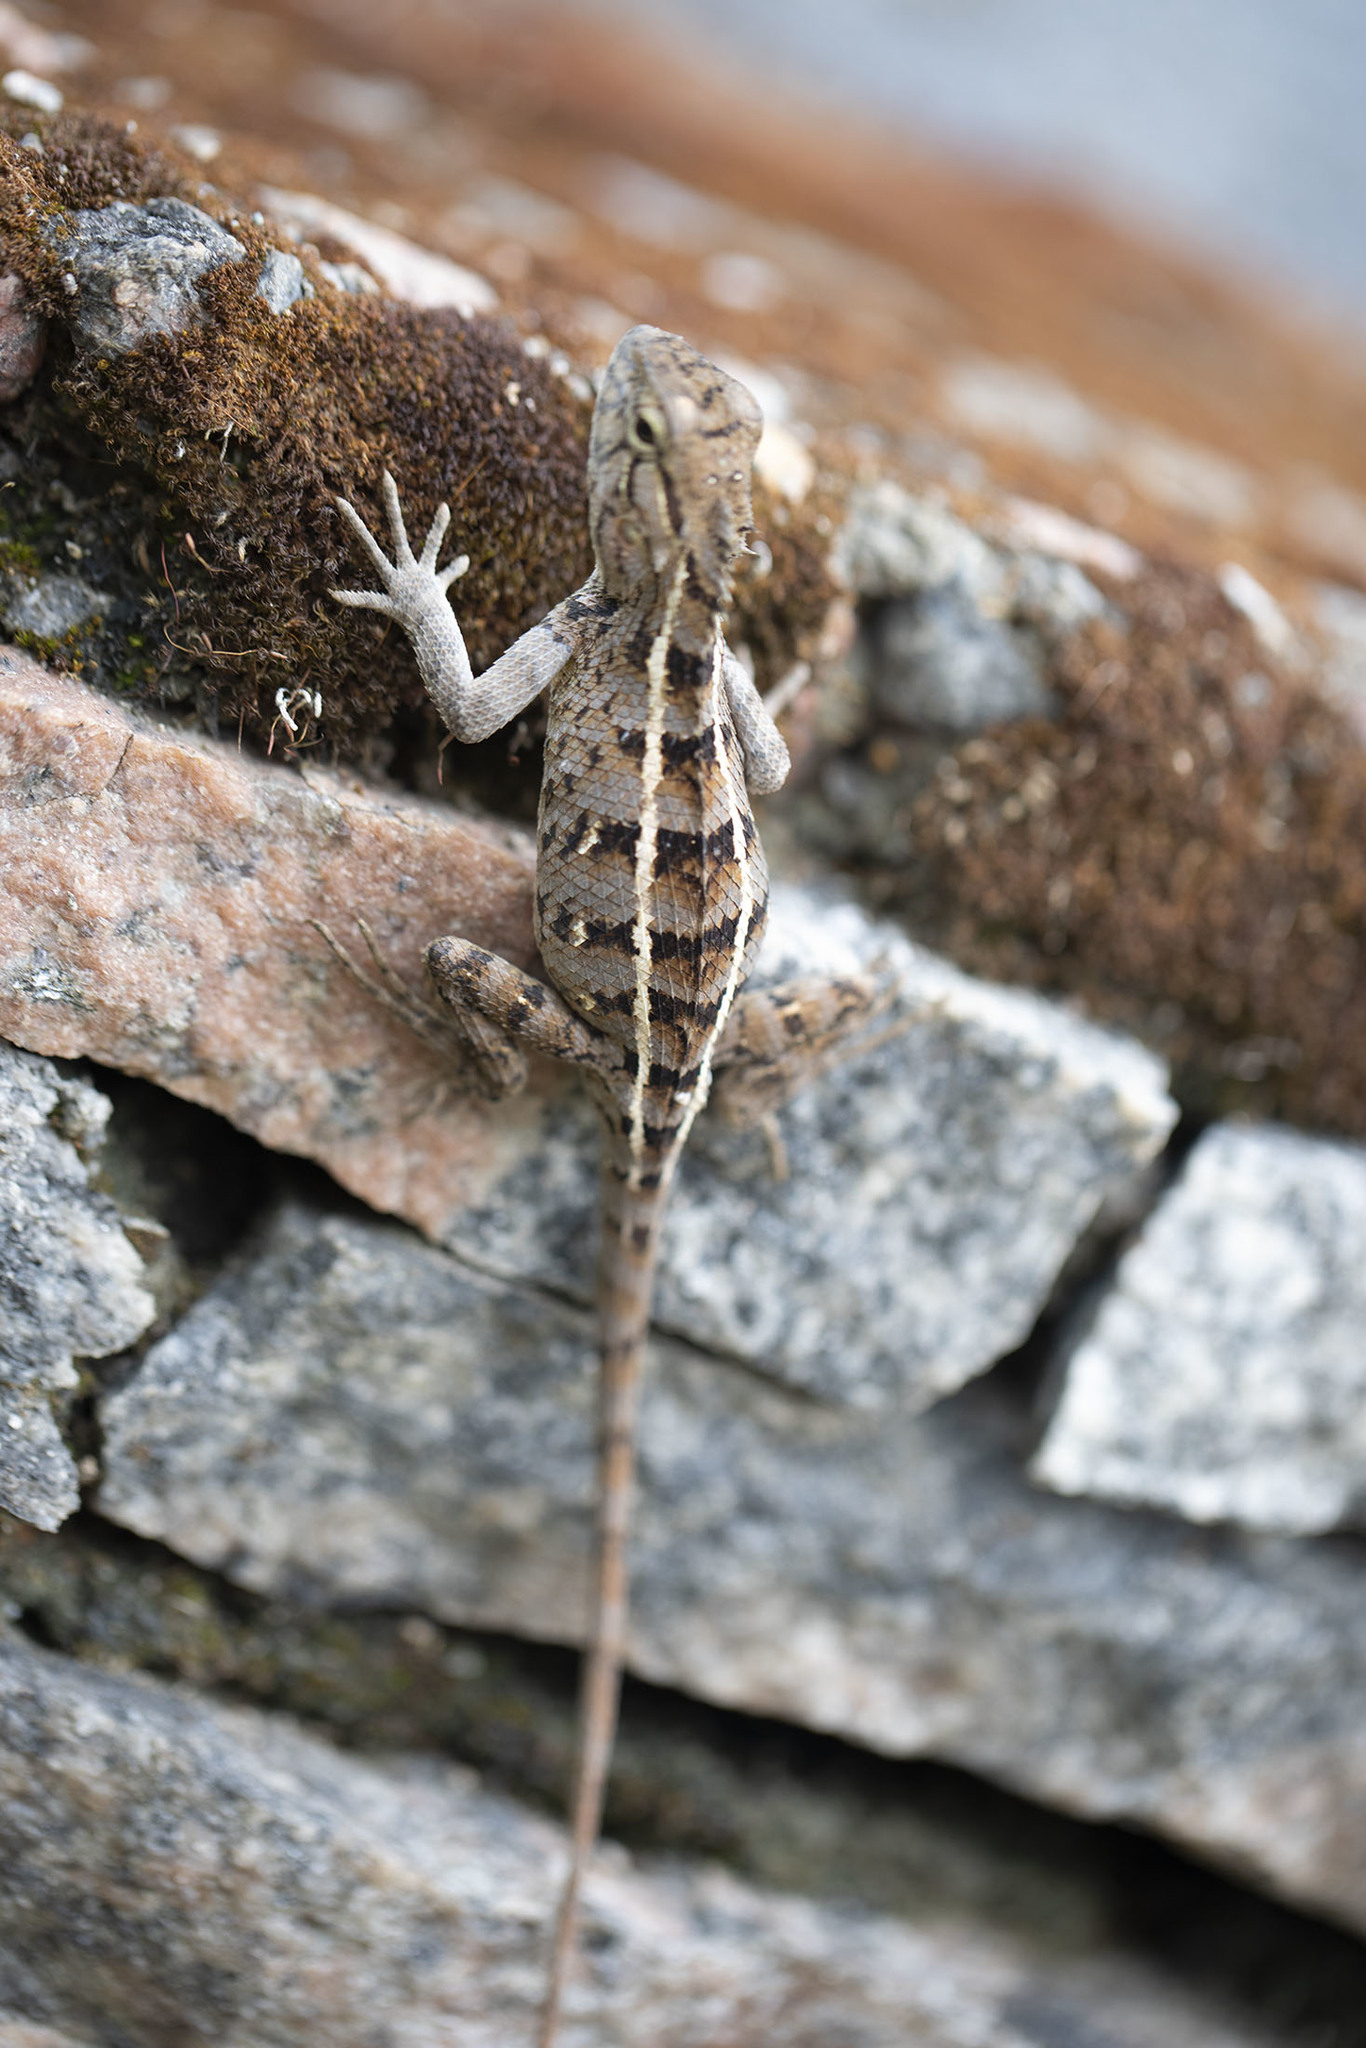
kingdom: Animalia
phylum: Chordata
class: Squamata
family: Agamidae
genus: Calotes
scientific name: Calotes versicolor
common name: Oriental garden lizard
